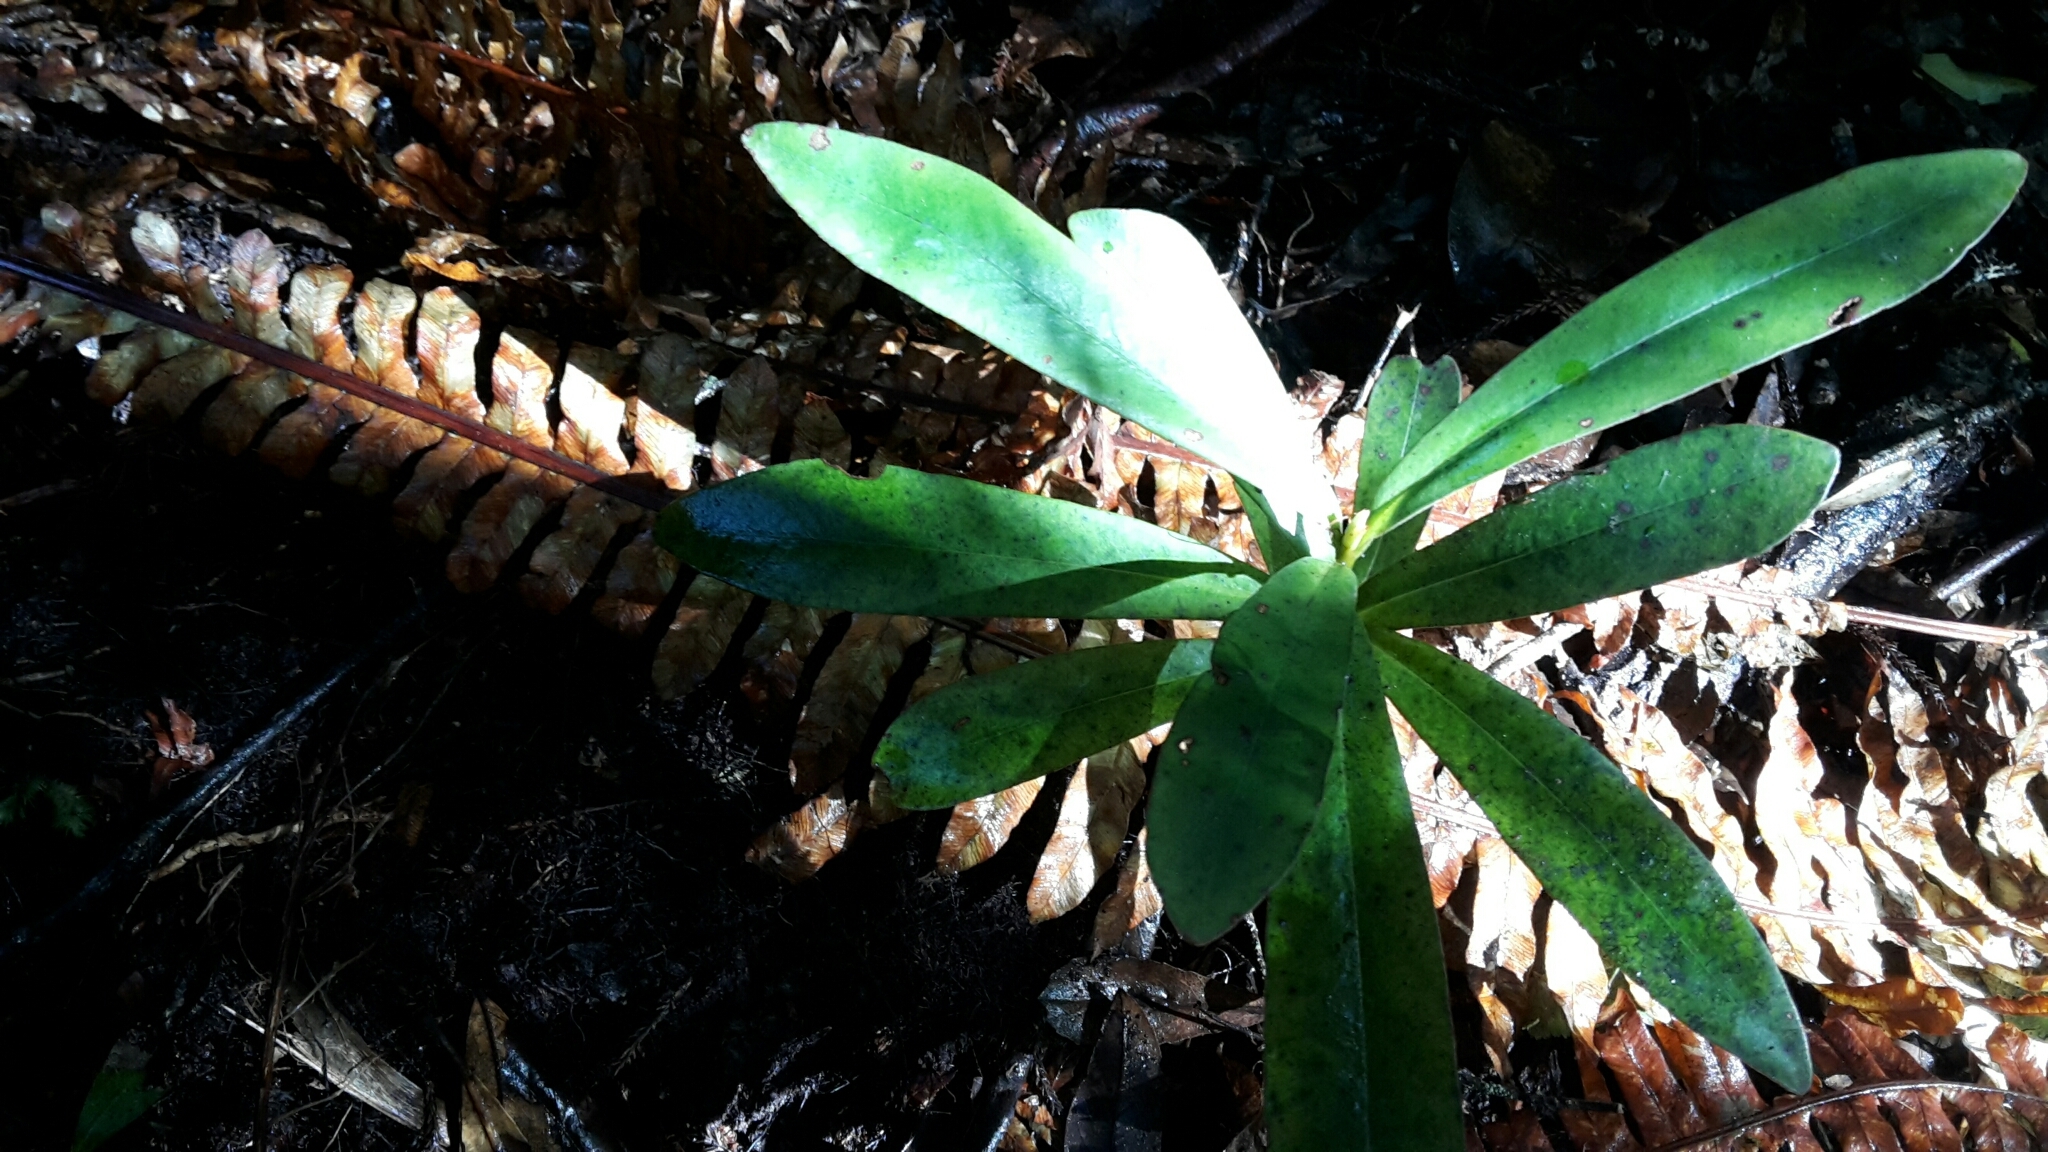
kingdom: Plantae
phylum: Tracheophyta
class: Magnoliopsida
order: Ericales
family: Primulaceae
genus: Myrsine
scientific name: Myrsine salicina
